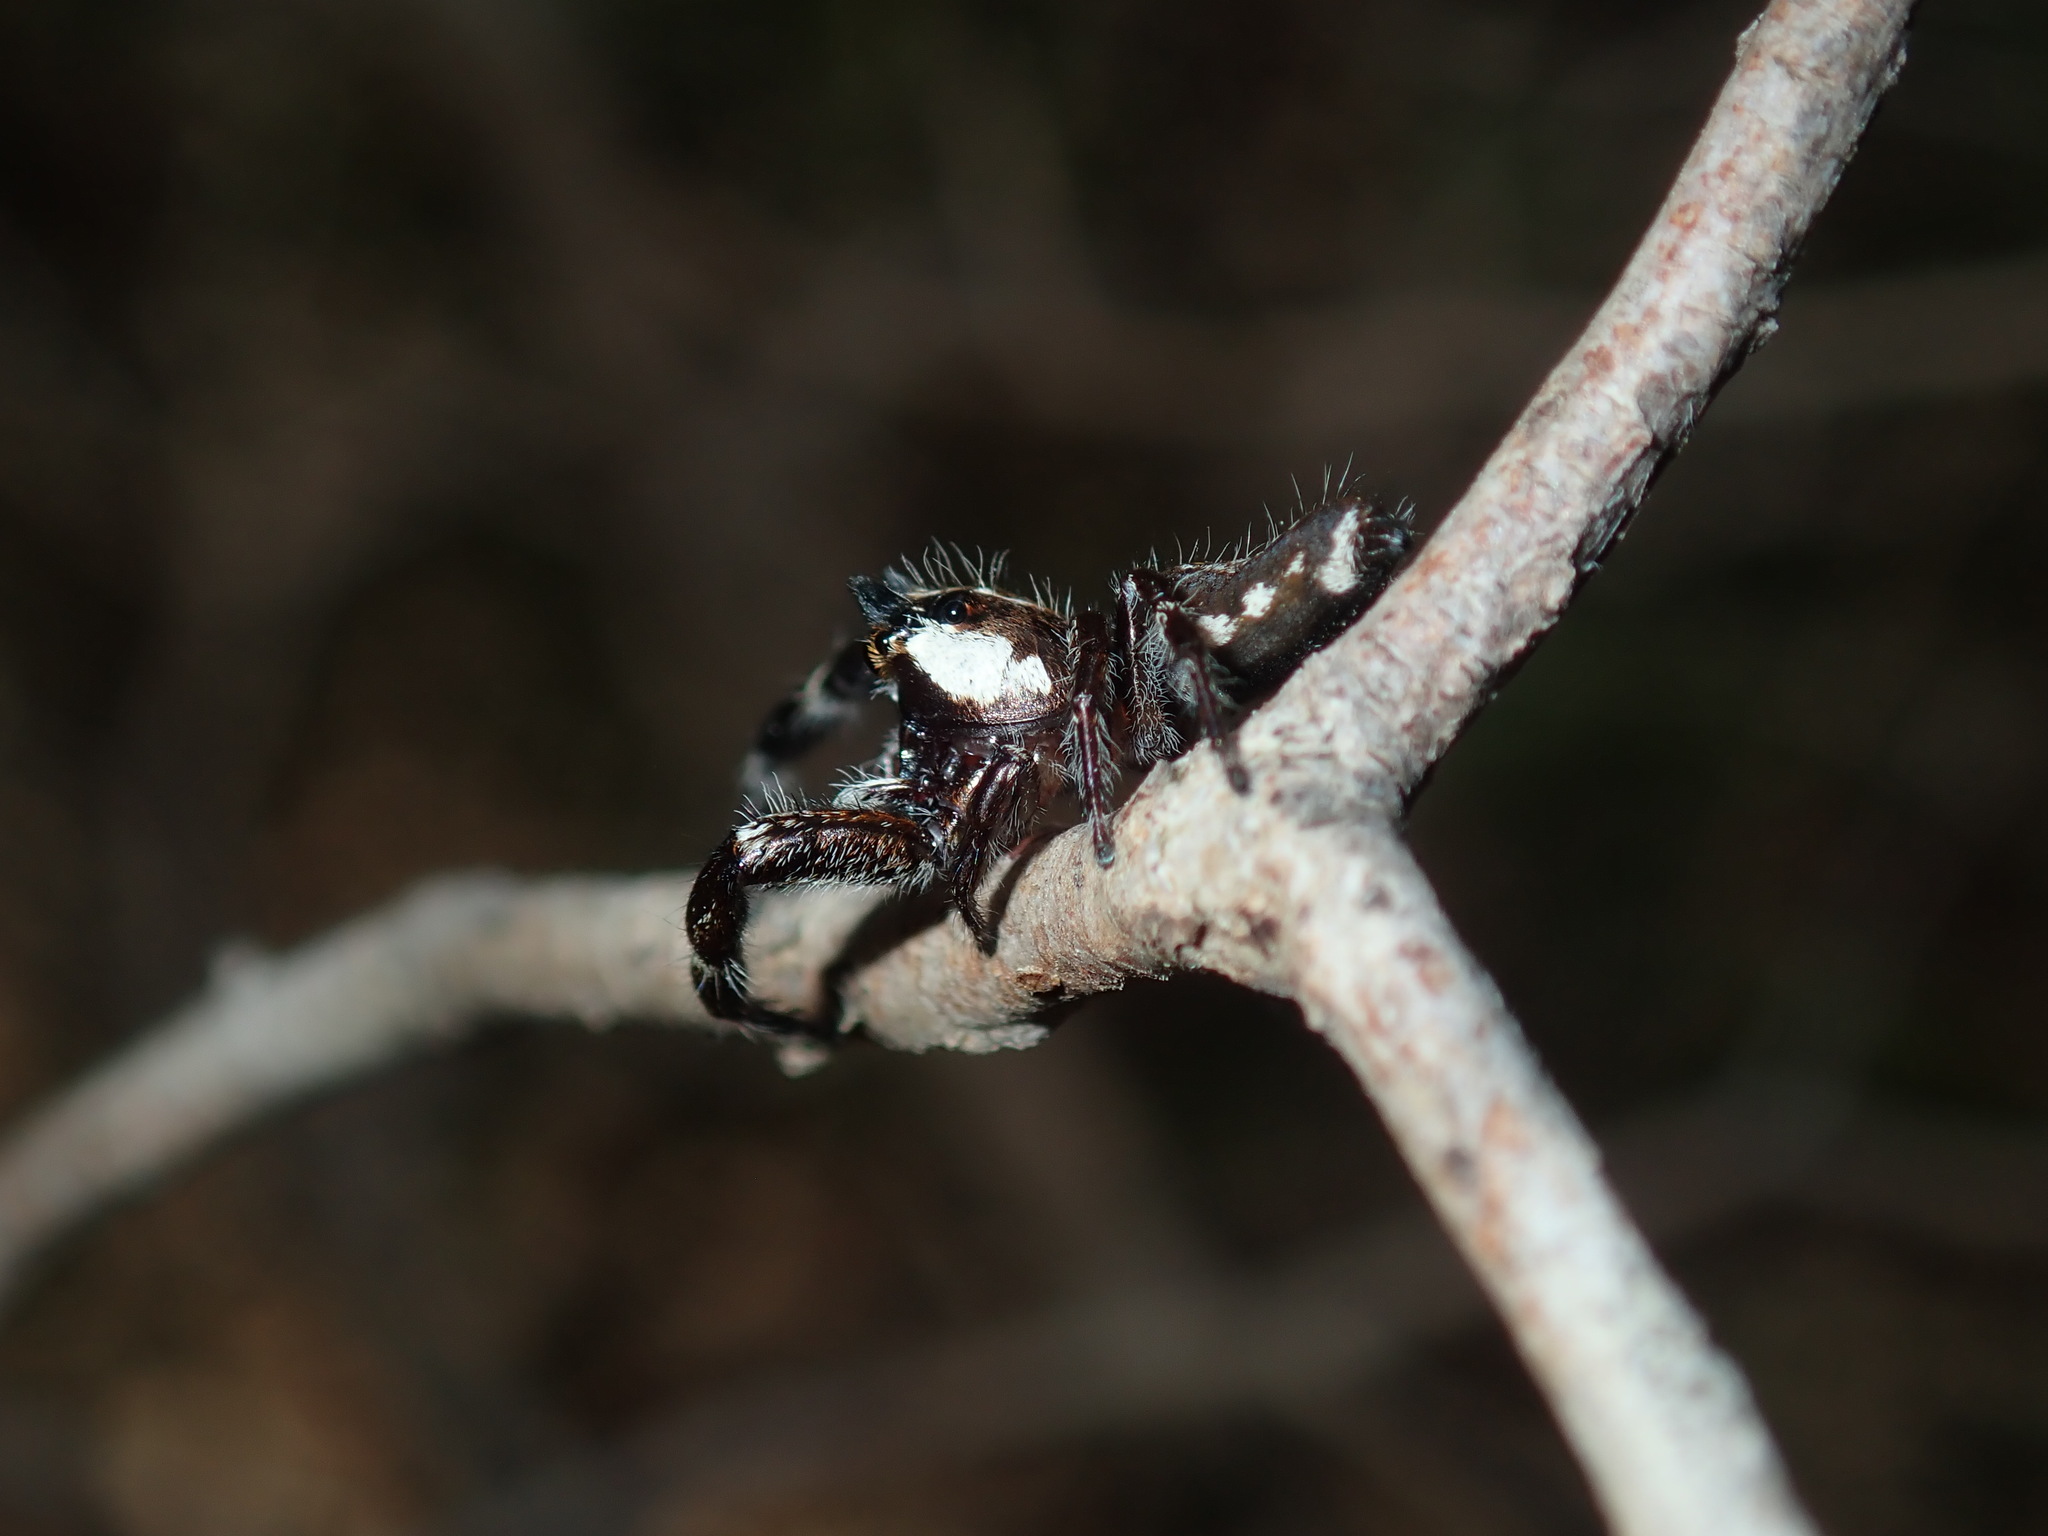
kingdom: Animalia
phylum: Arthropoda
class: Arachnida
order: Araneae
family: Salticidae
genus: Sandalodes
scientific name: Sandalodes bipenicillatus
